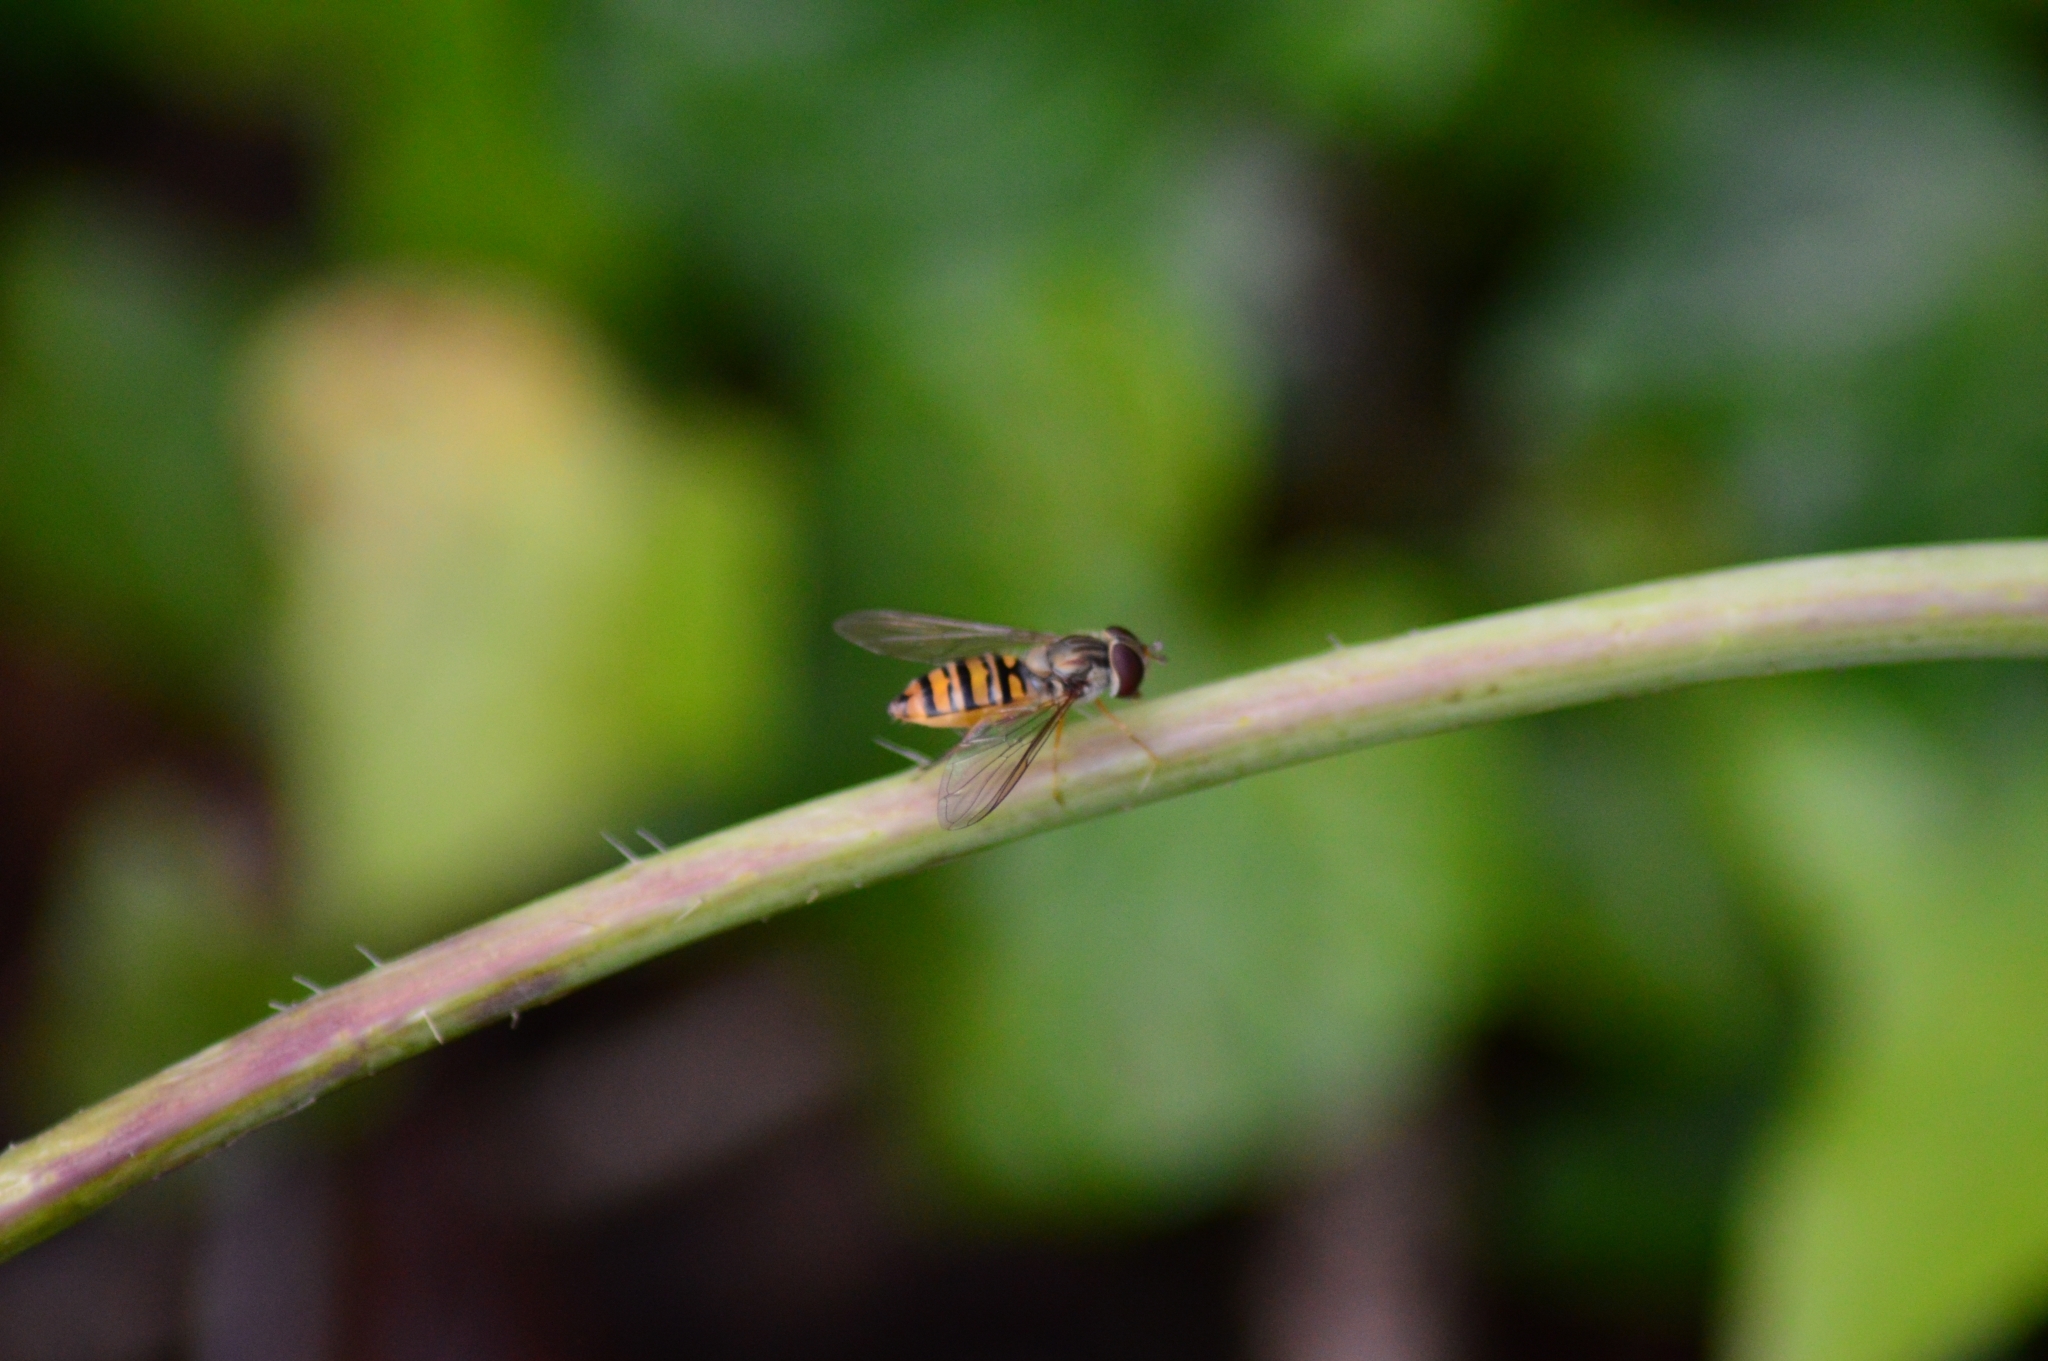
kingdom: Animalia
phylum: Arthropoda
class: Insecta
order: Diptera
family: Syrphidae
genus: Episyrphus
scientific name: Episyrphus balteatus
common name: Marmalade hoverfly
